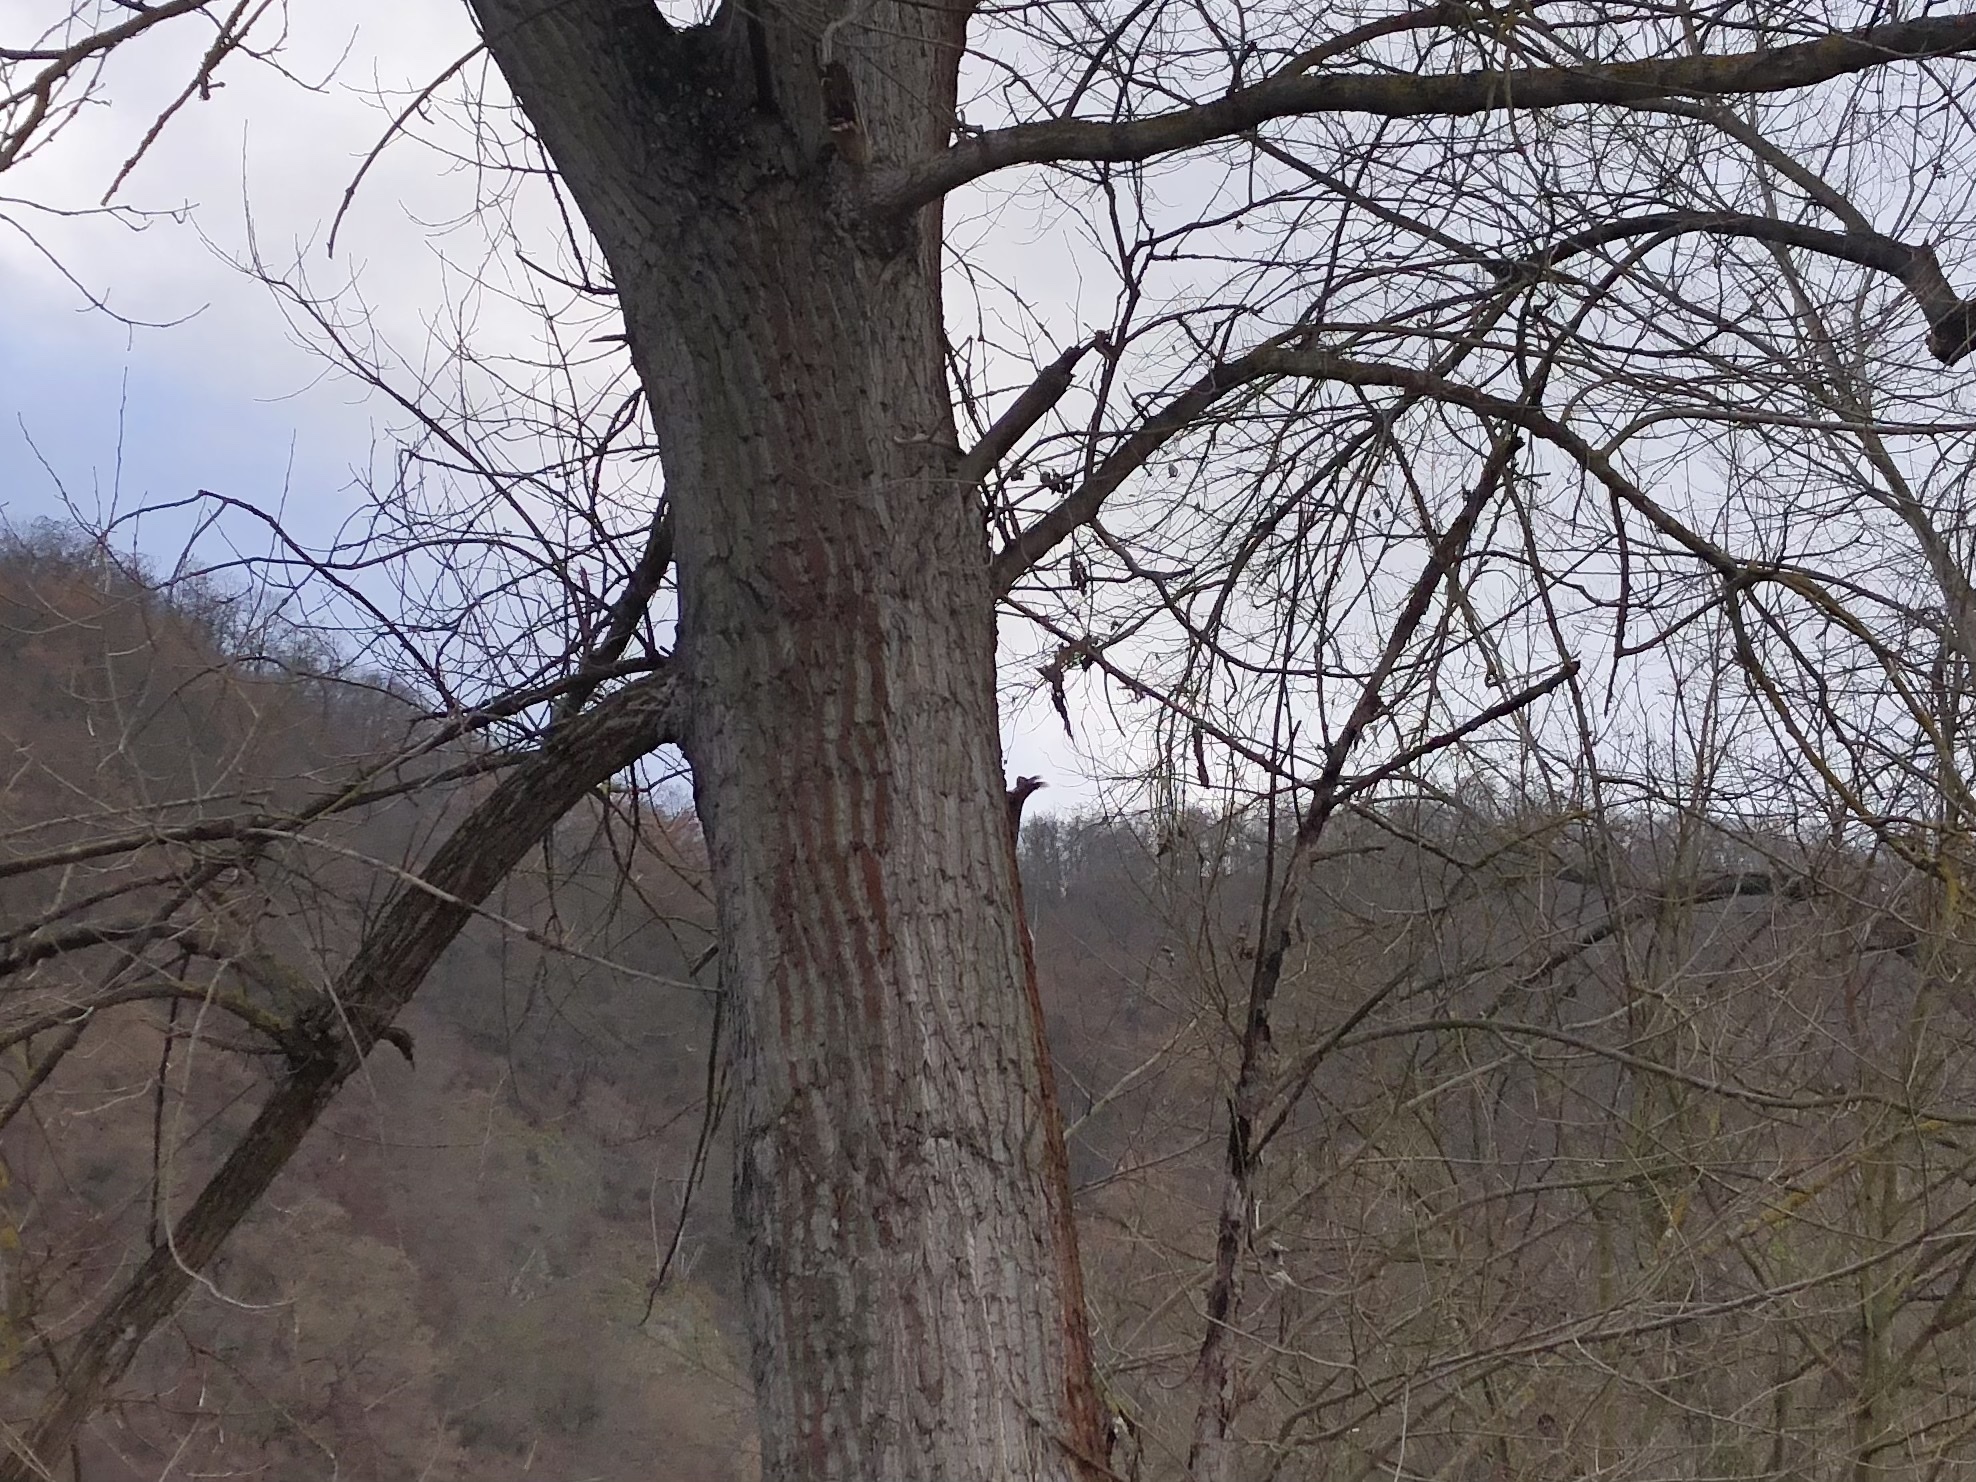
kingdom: Animalia
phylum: Chordata
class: Mammalia
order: Rodentia
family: Sciuridae
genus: Sciurus
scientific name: Sciurus vulgaris
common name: Eurasian red squirrel
